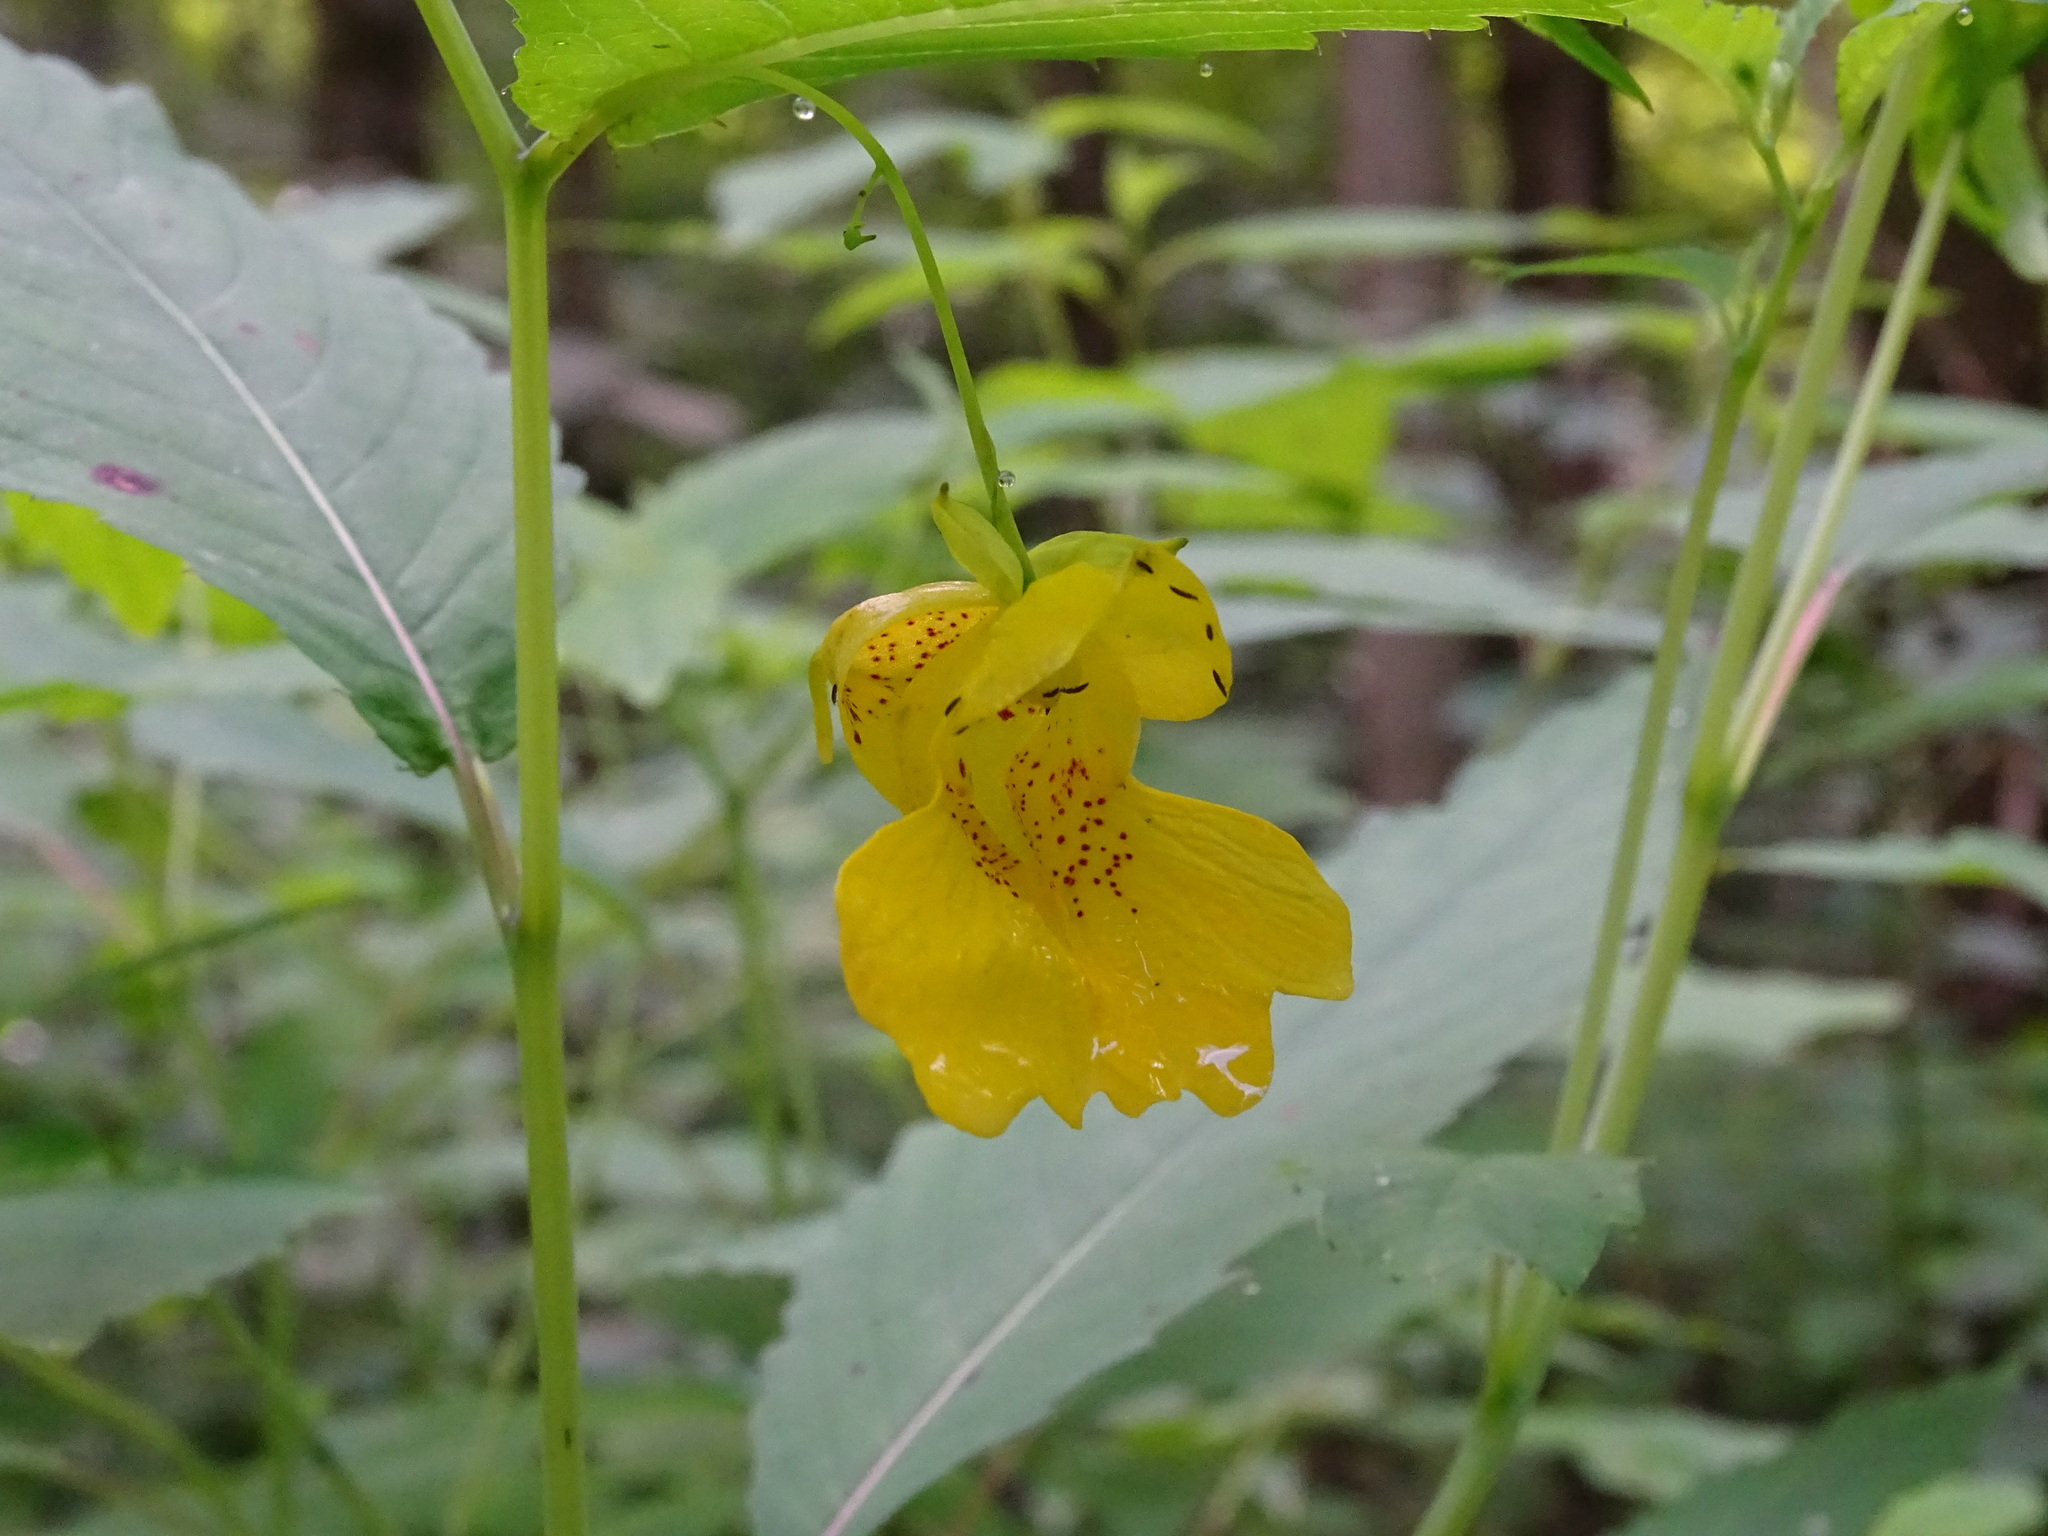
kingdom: Plantae
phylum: Tracheophyta
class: Magnoliopsida
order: Ericales
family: Balsaminaceae
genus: Impatiens
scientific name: Impatiens pallida
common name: Pale snapweed
